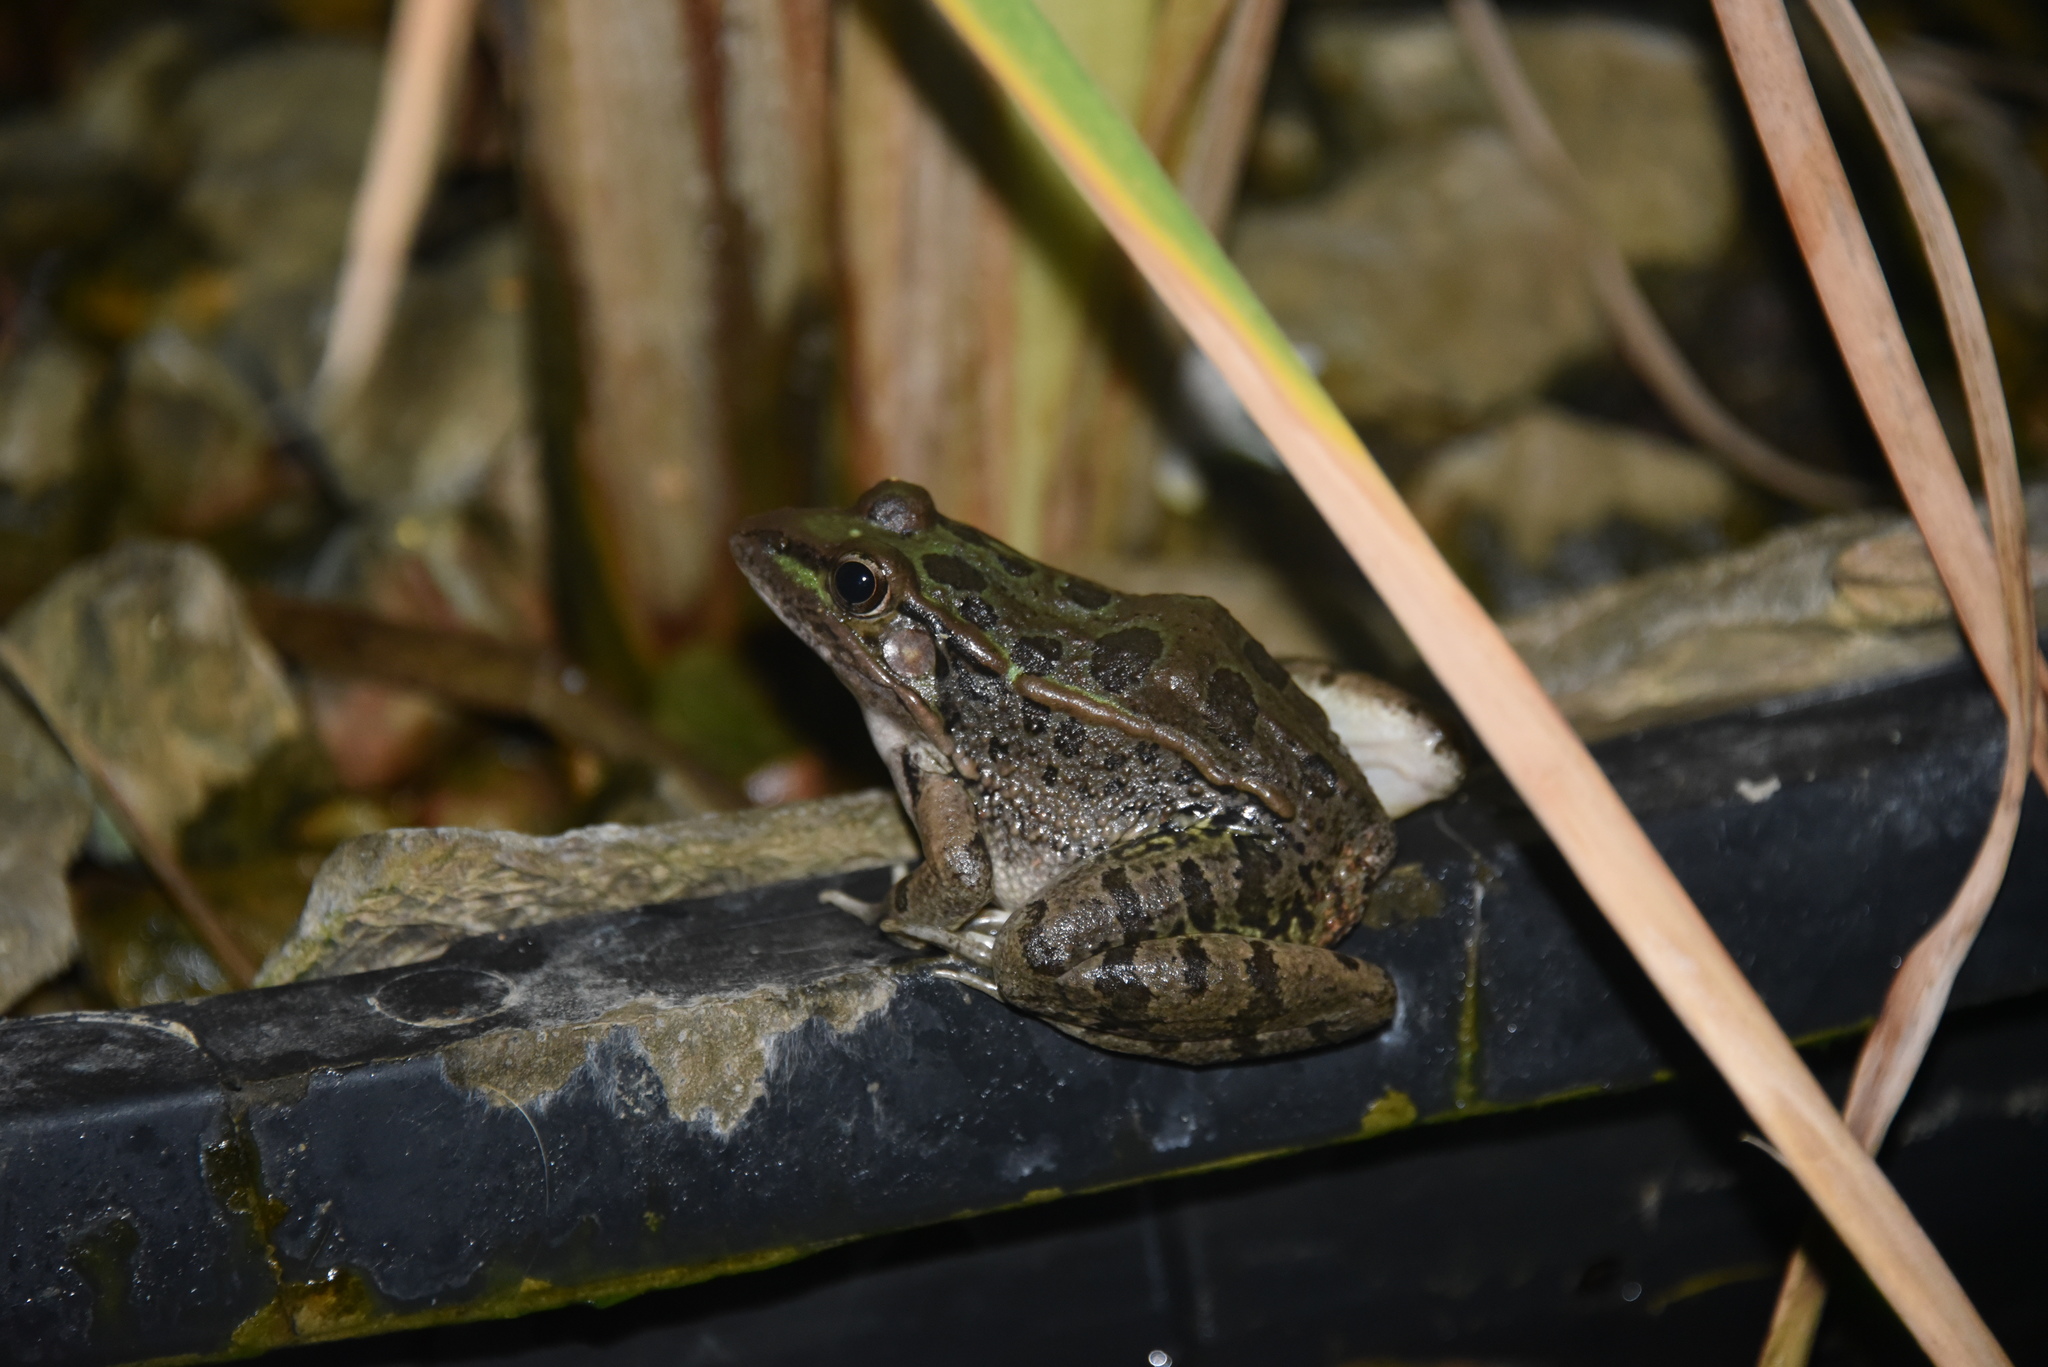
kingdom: Animalia
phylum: Chordata
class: Amphibia
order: Anura
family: Ranidae
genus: Lithobates
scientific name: Lithobates berlandieri
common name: Rio grande leopard frog
